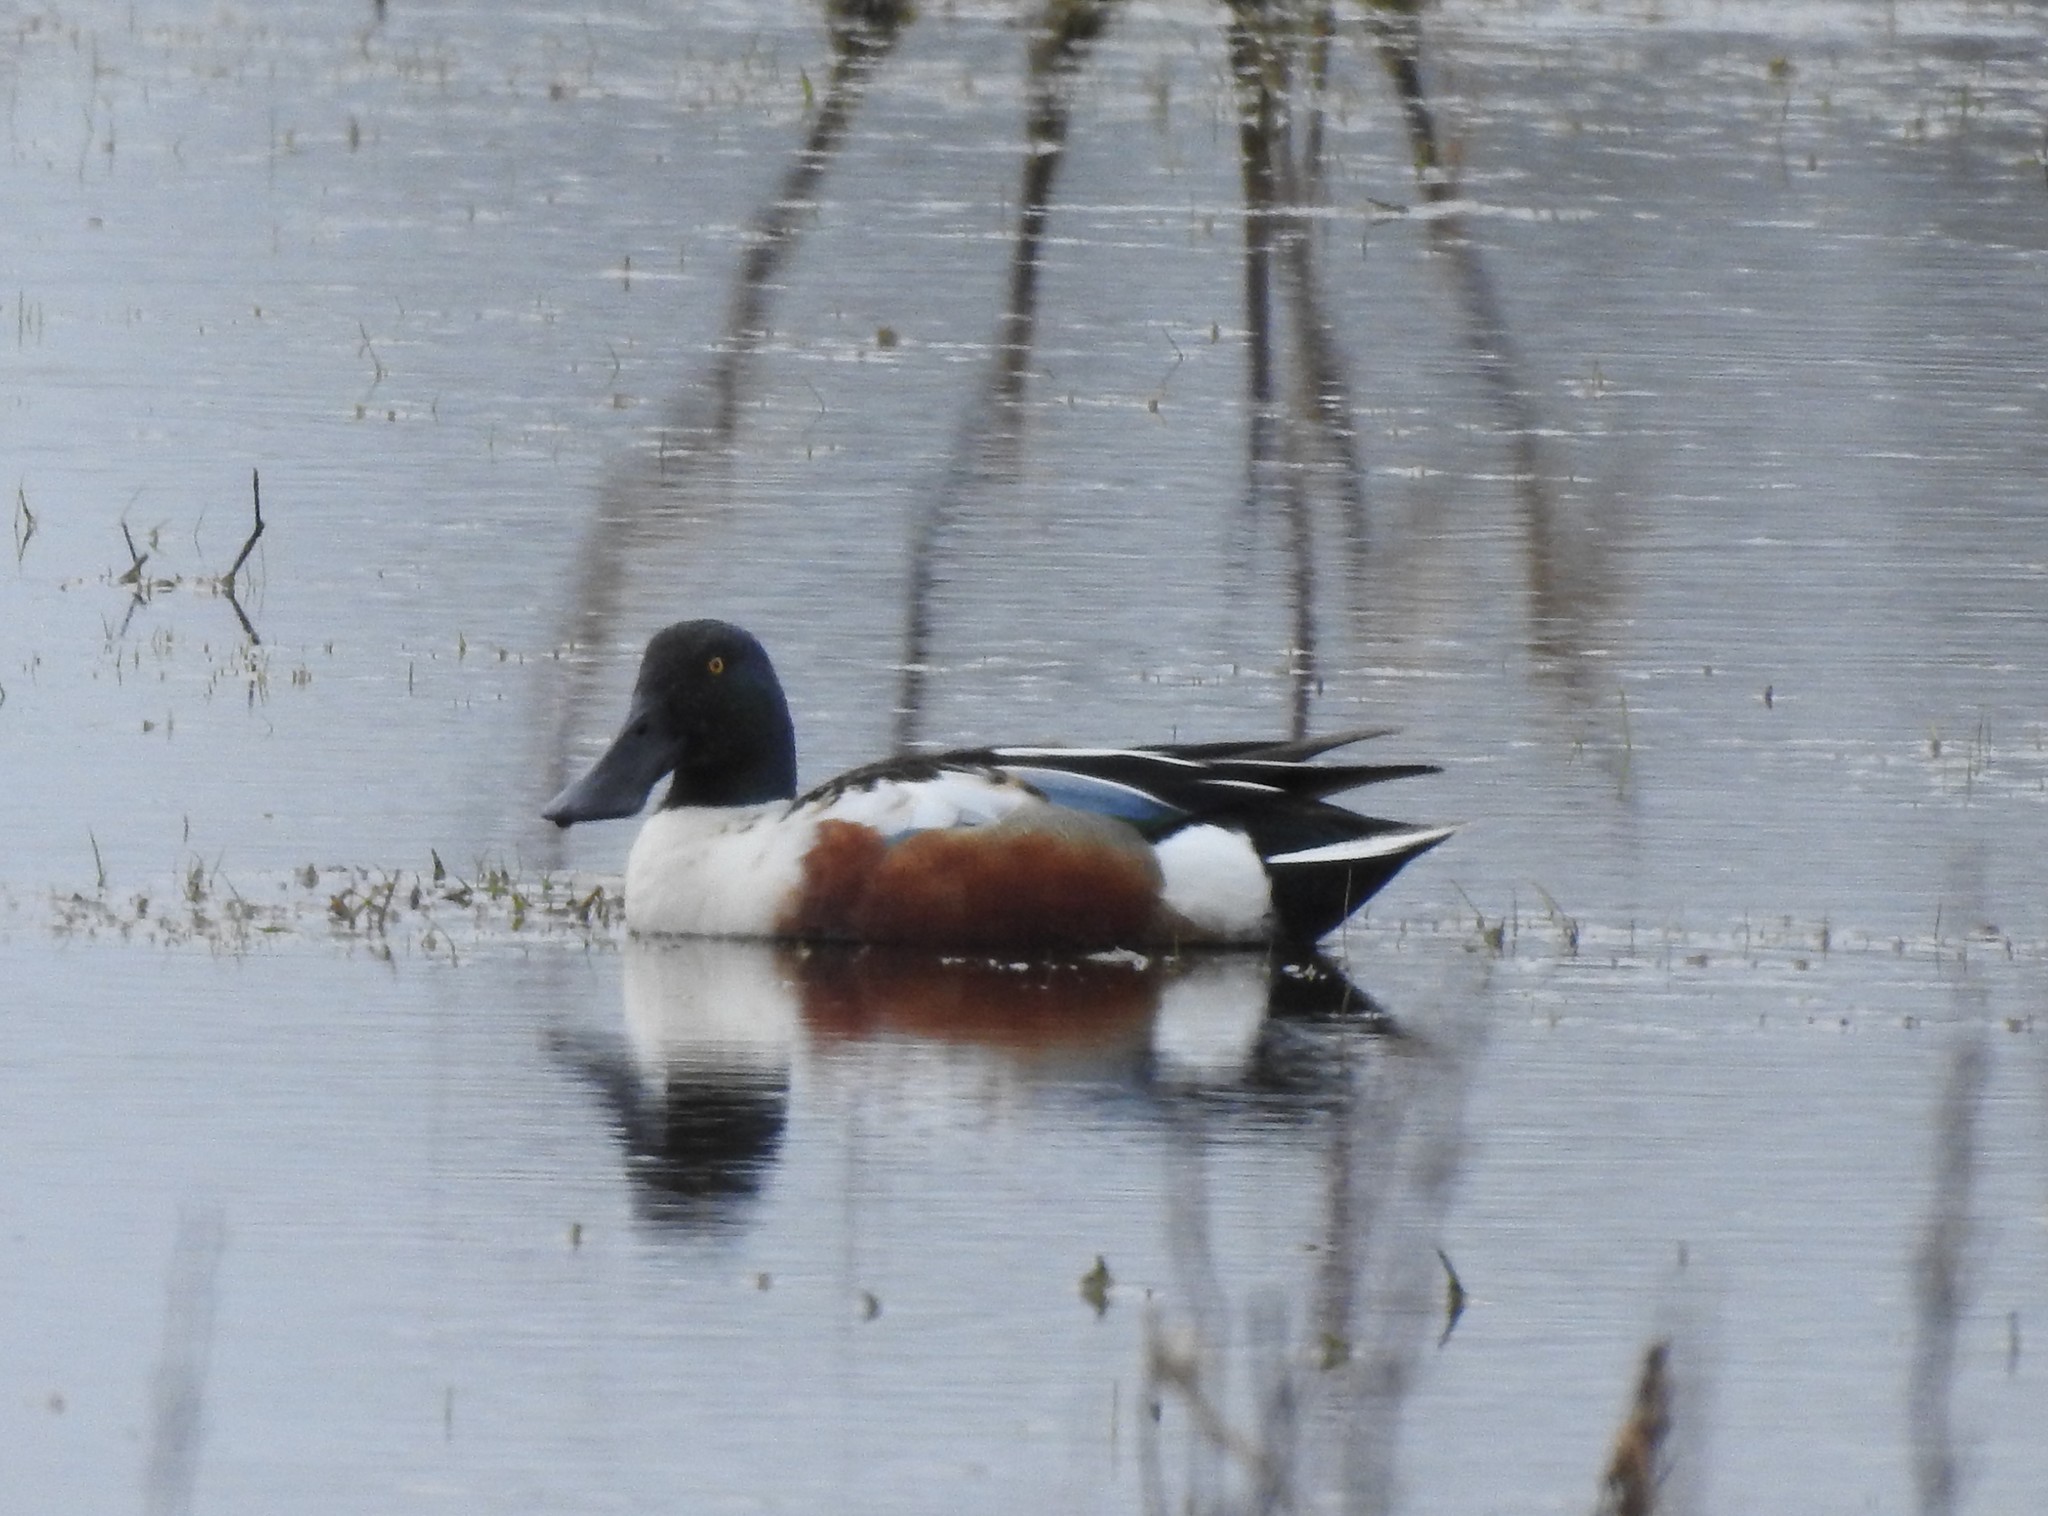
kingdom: Animalia
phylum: Chordata
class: Aves
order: Anseriformes
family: Anatidae
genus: Spatula
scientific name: Spatula clypeata
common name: Northern shoveler
